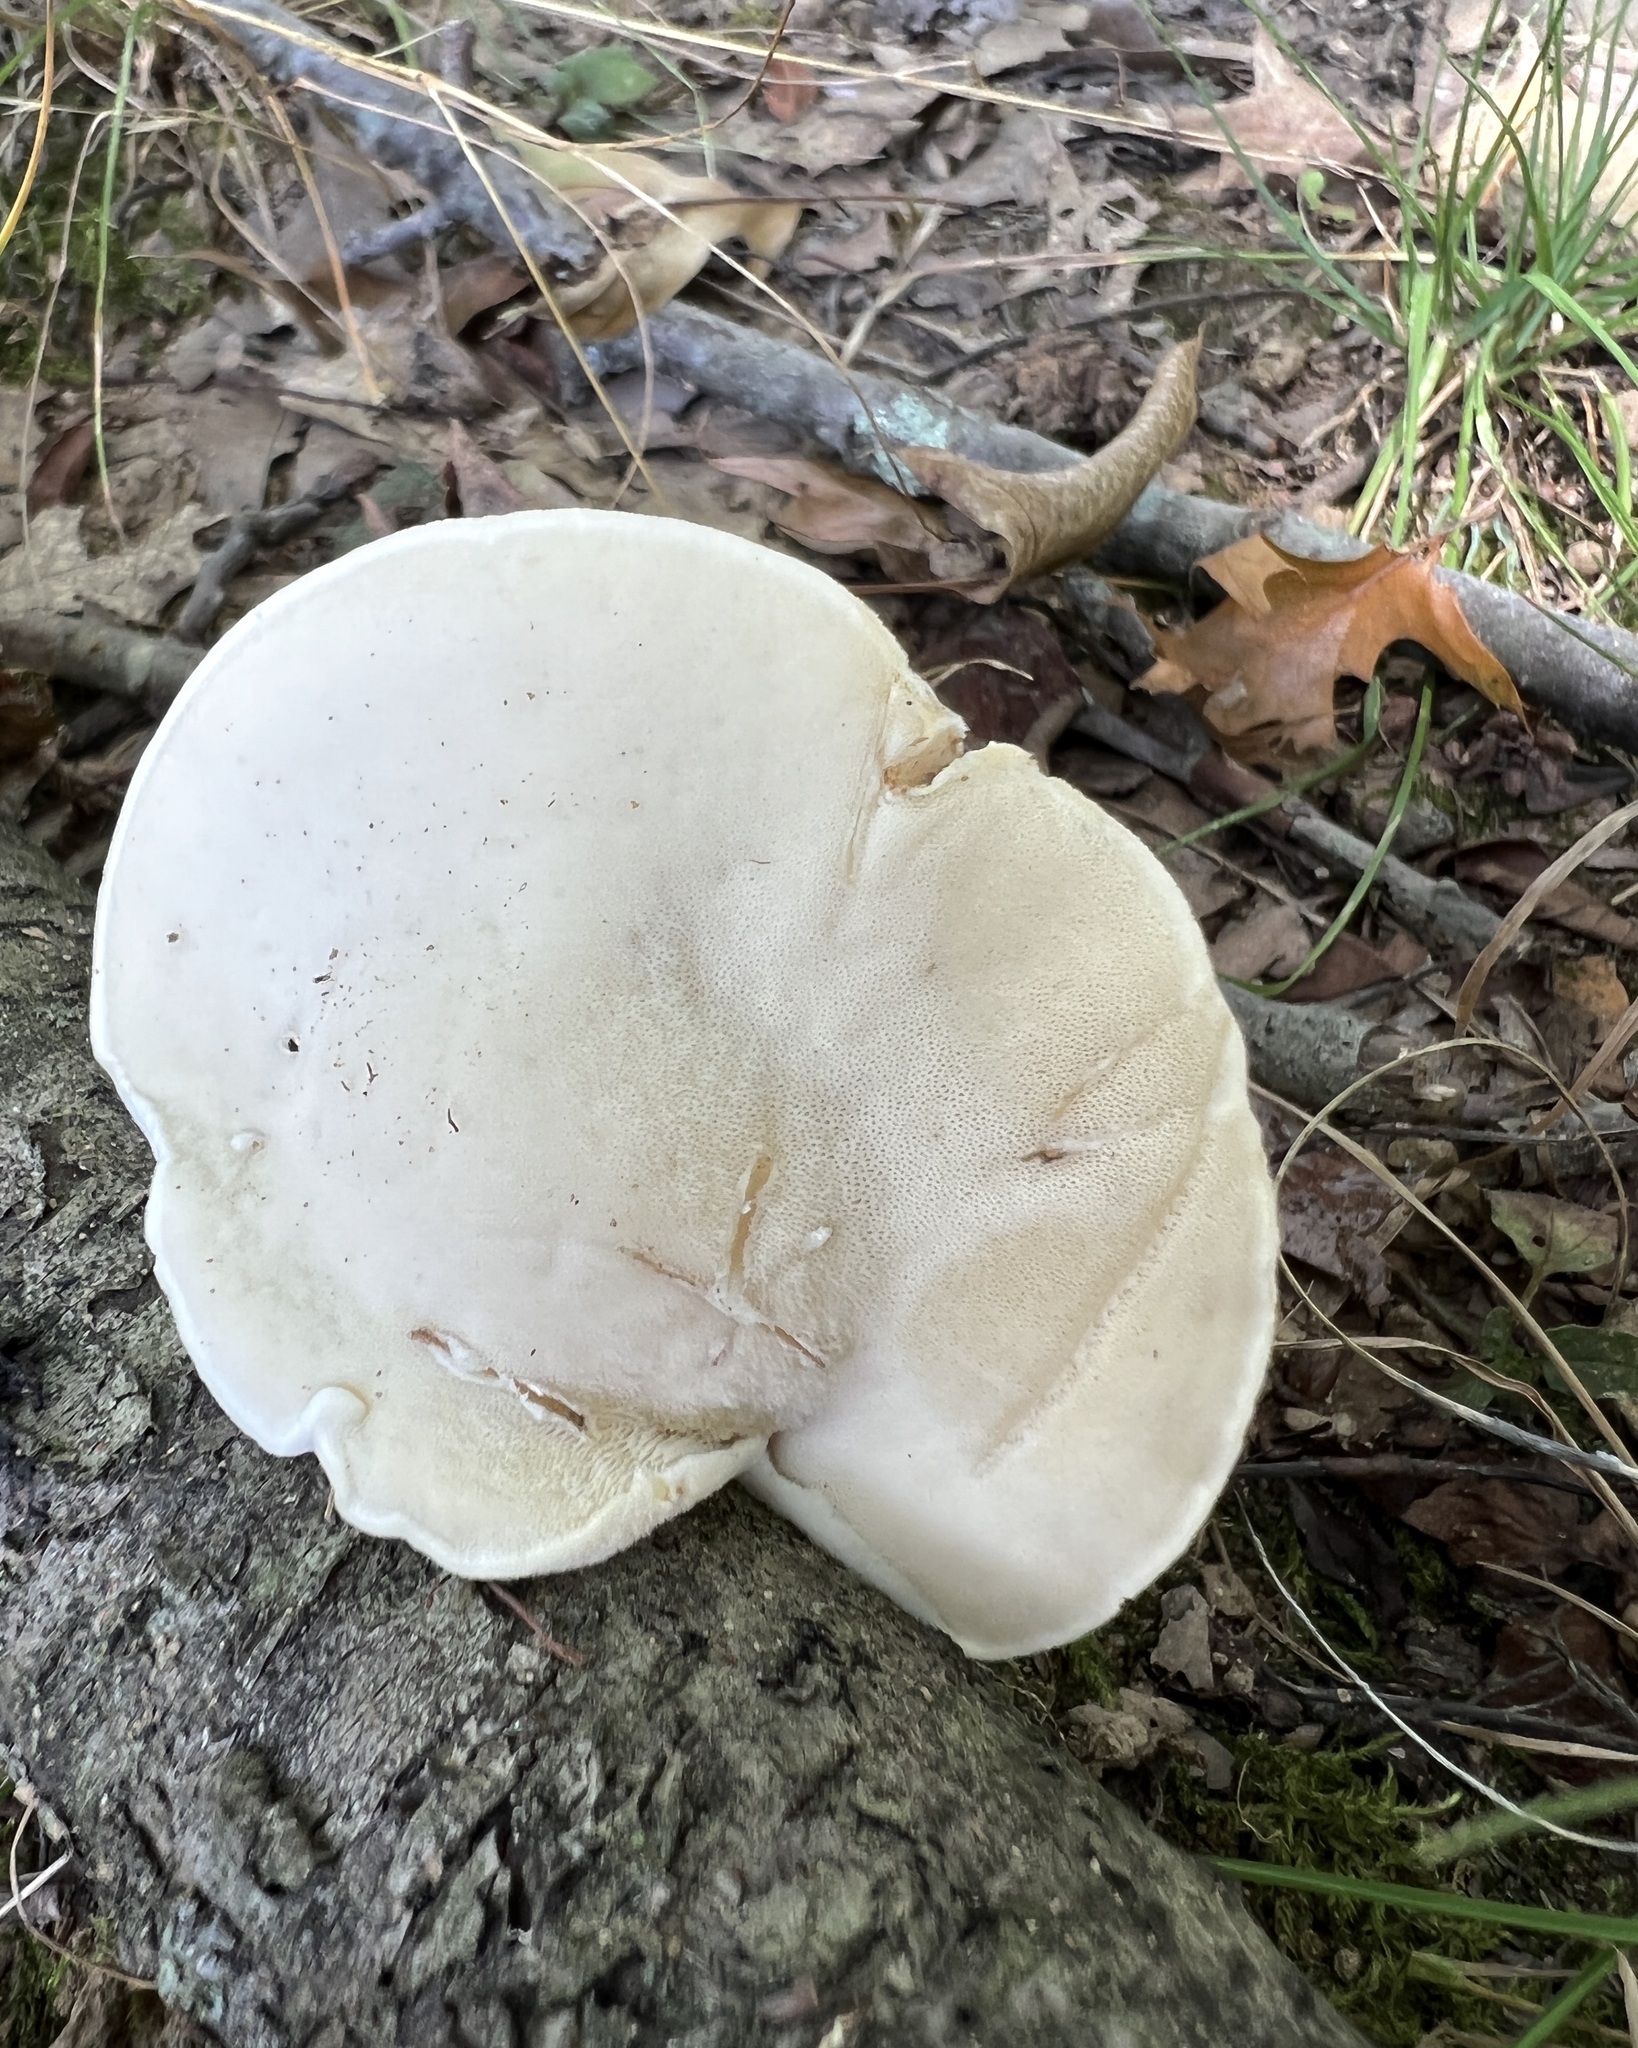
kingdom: Fungi
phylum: Basidiomycota
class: Agaricomycetes
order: Polyporales
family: Incrustoporiaceae
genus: Tyromyces
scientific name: Tyromyces chioneus
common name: White cheese polypore
